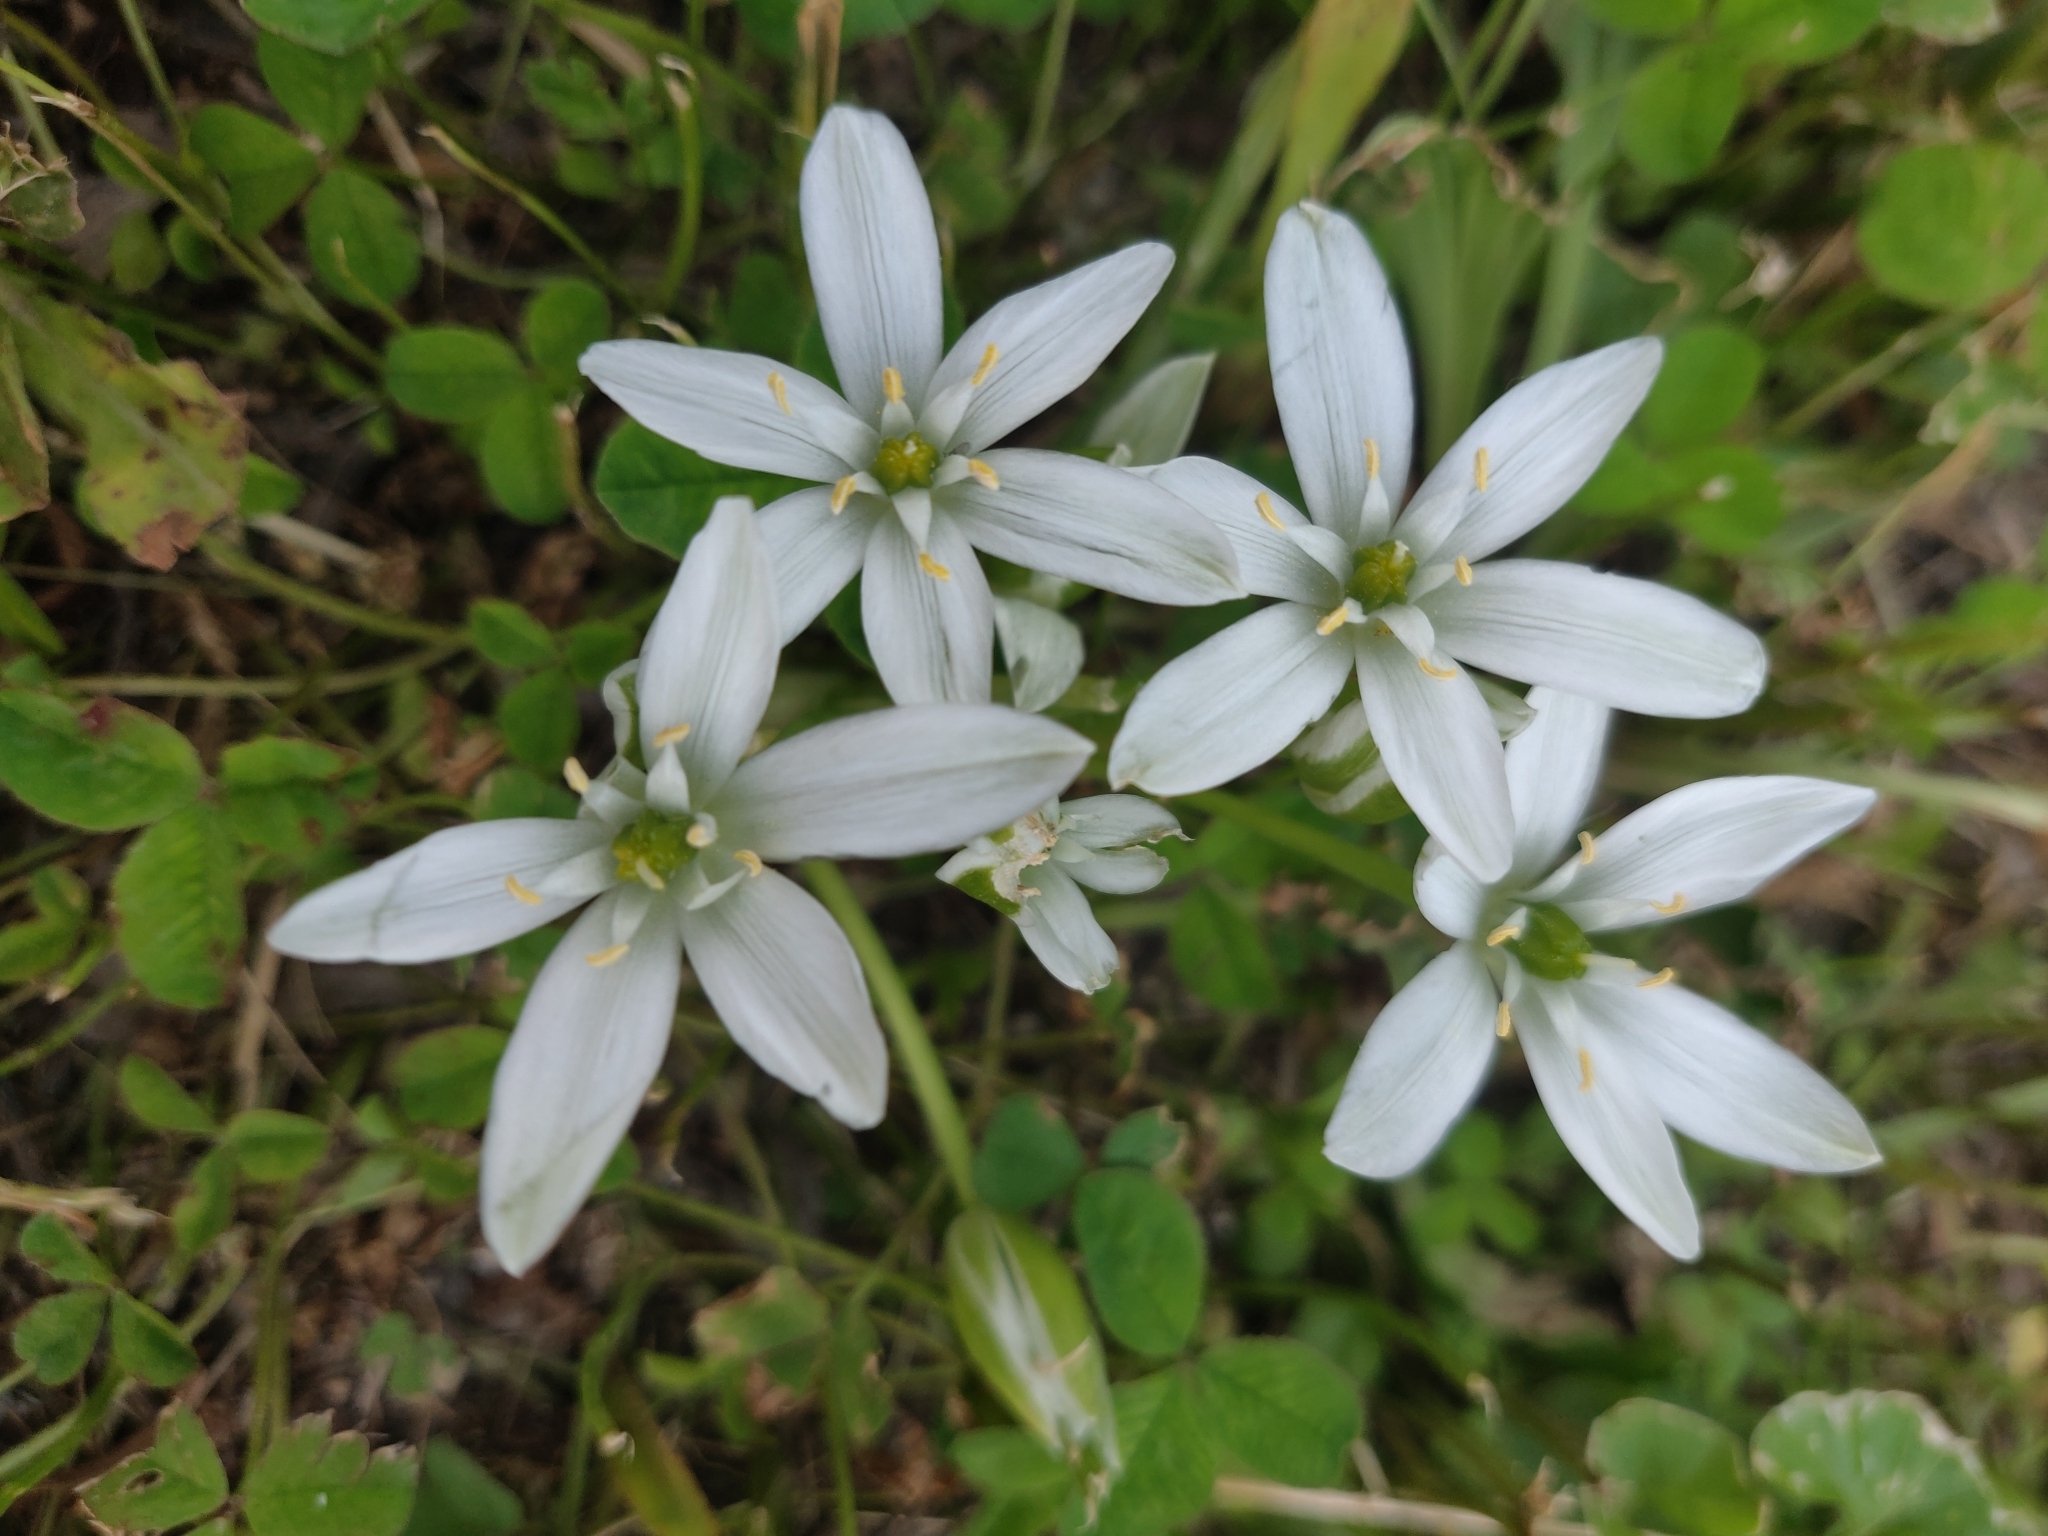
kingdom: Plantae
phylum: Tracheophyta
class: Liliopsida
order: Asparagales
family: Asparagaceae
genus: Ornithogalum
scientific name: Ornithogalum umbellatum
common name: Garden star-of-bethlehem
